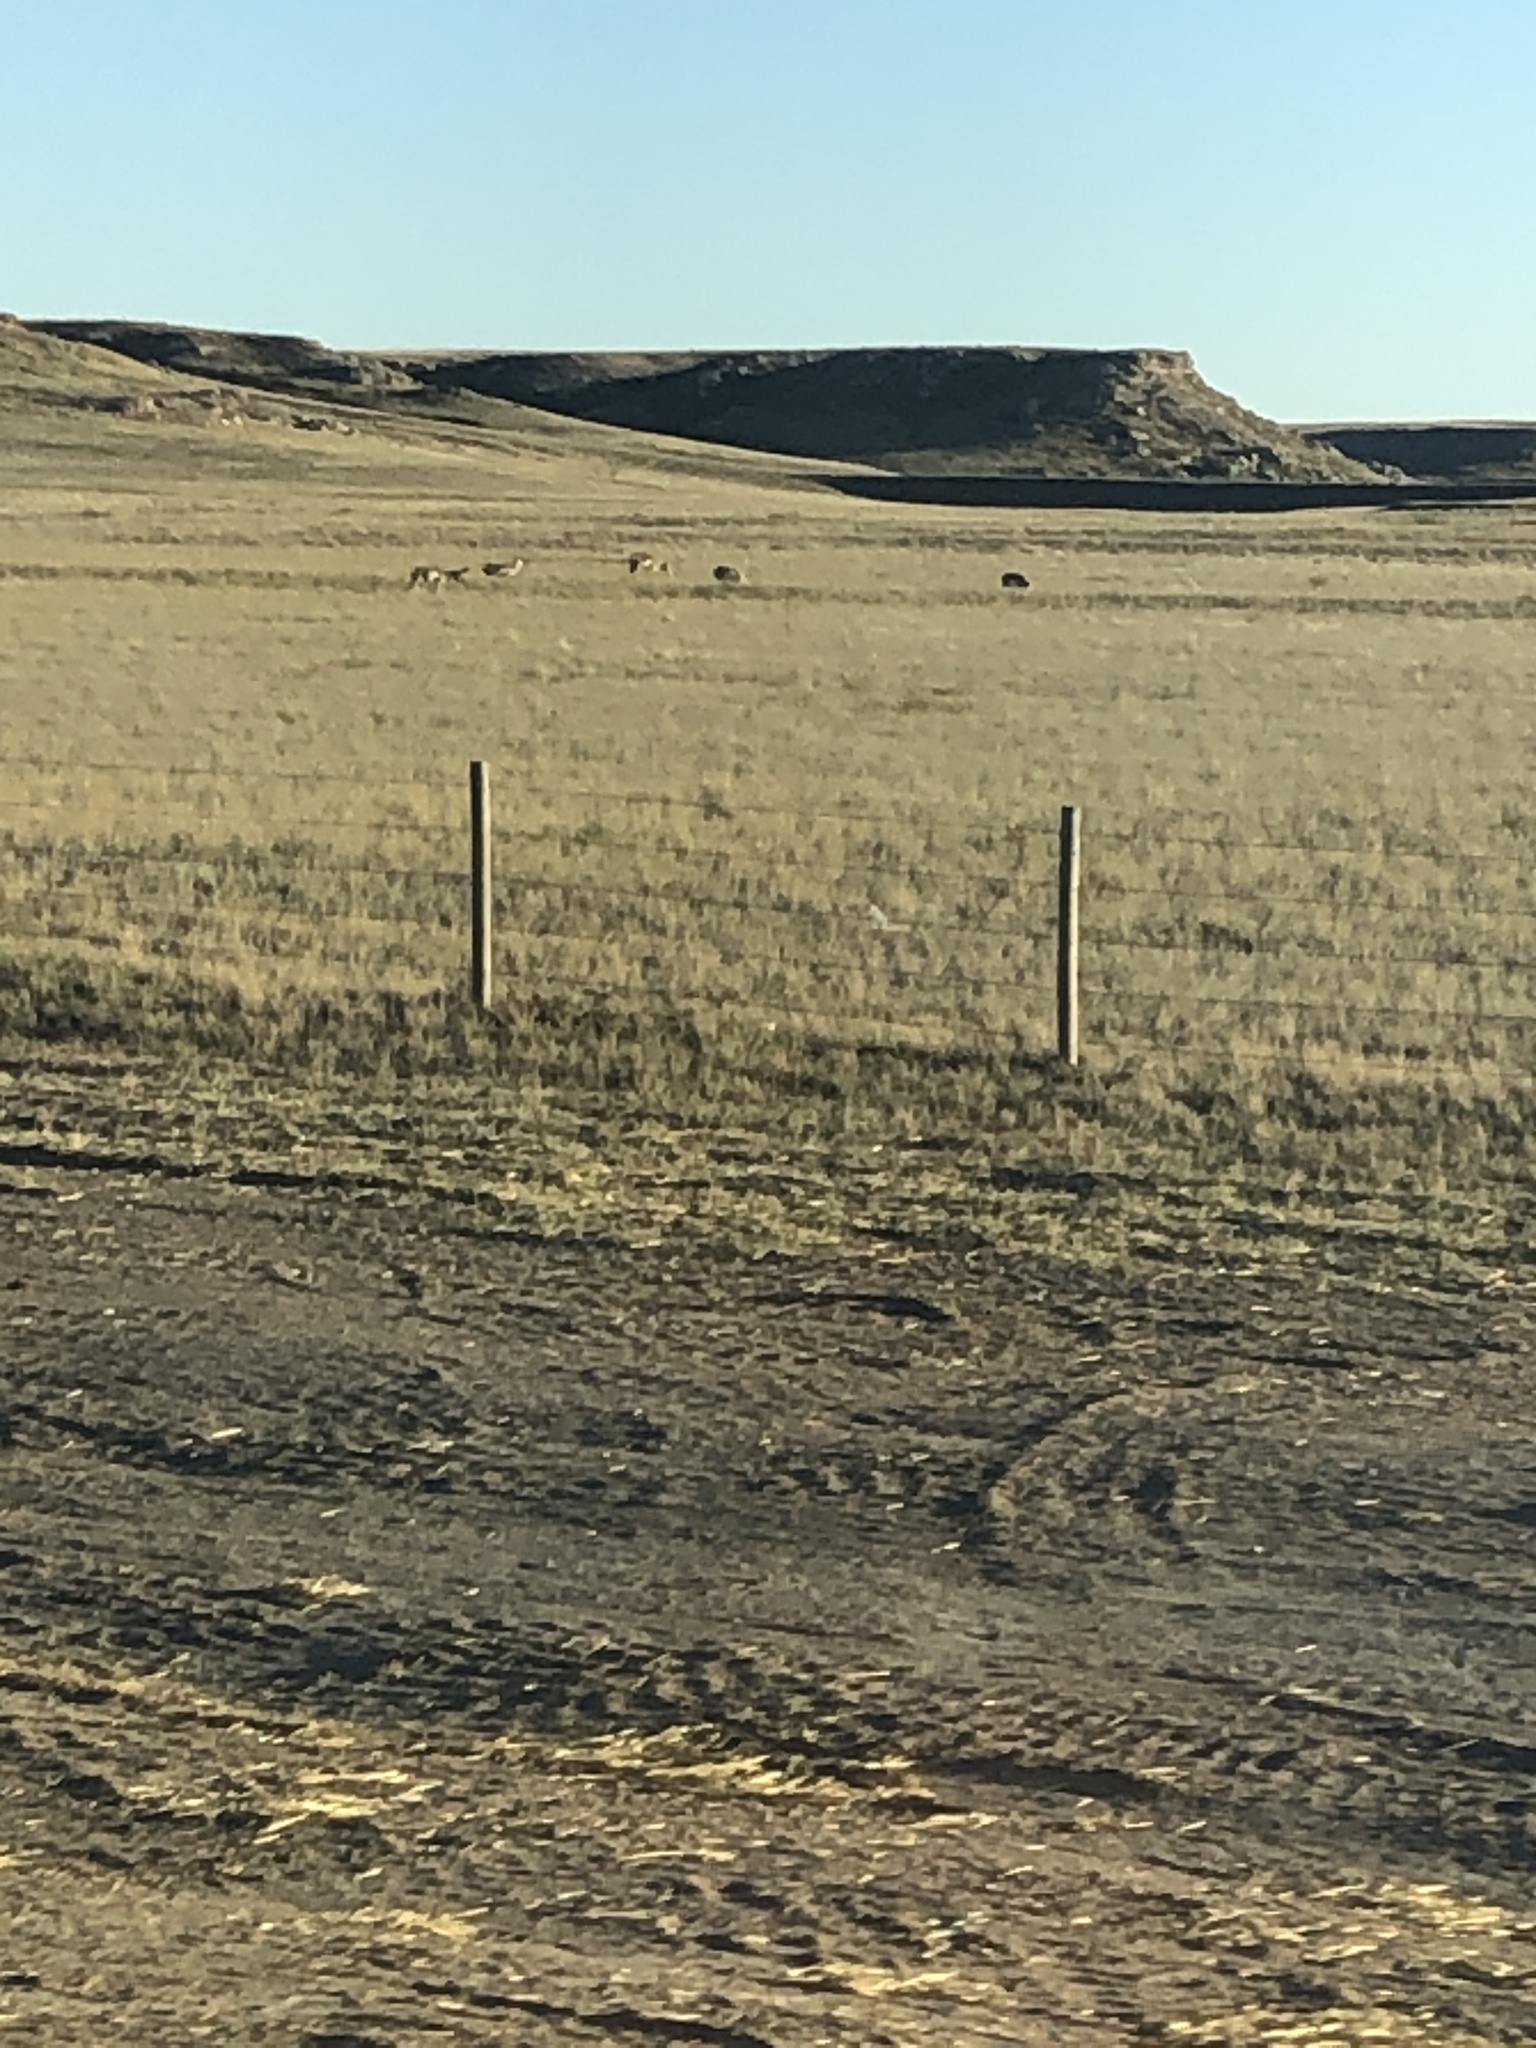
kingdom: Animalia
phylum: Chordata
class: Mammalia
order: Artiodactyla
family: Antilocapridae
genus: Antilocapra
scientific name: Antilocapra americana
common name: Pronghorn
